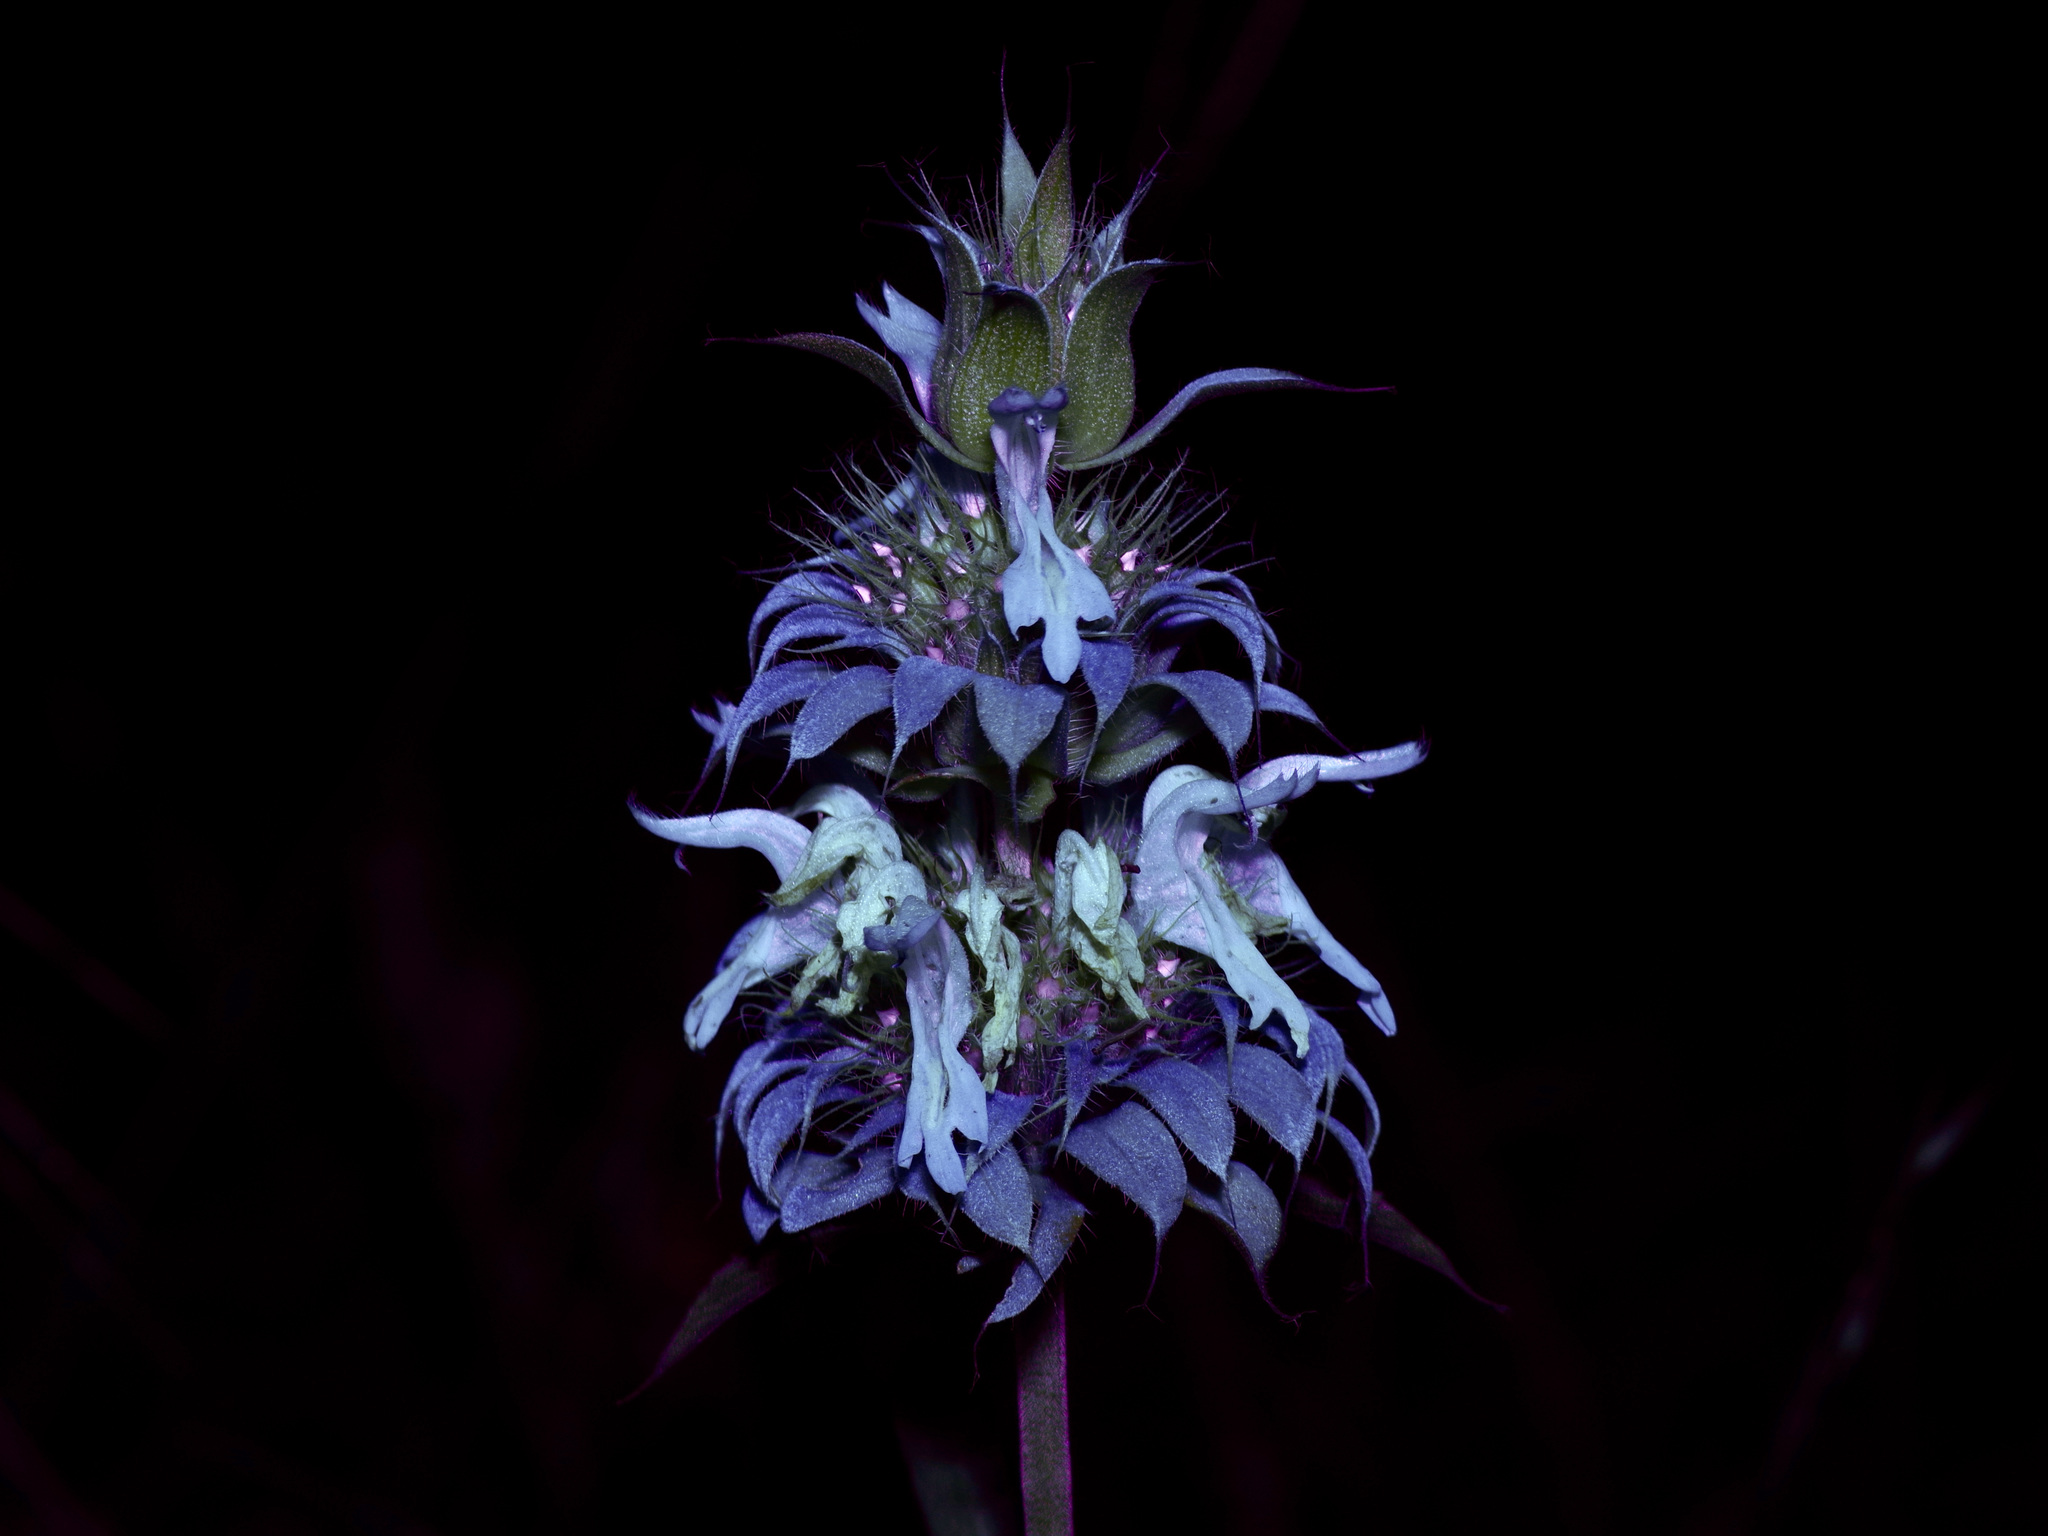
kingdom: Plantae
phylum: Tracheophyta
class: Magnoliopsida
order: Lamiales
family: Lamiaceae
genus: Monarda
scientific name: Monarda citriodora
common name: Lemon beebalm
